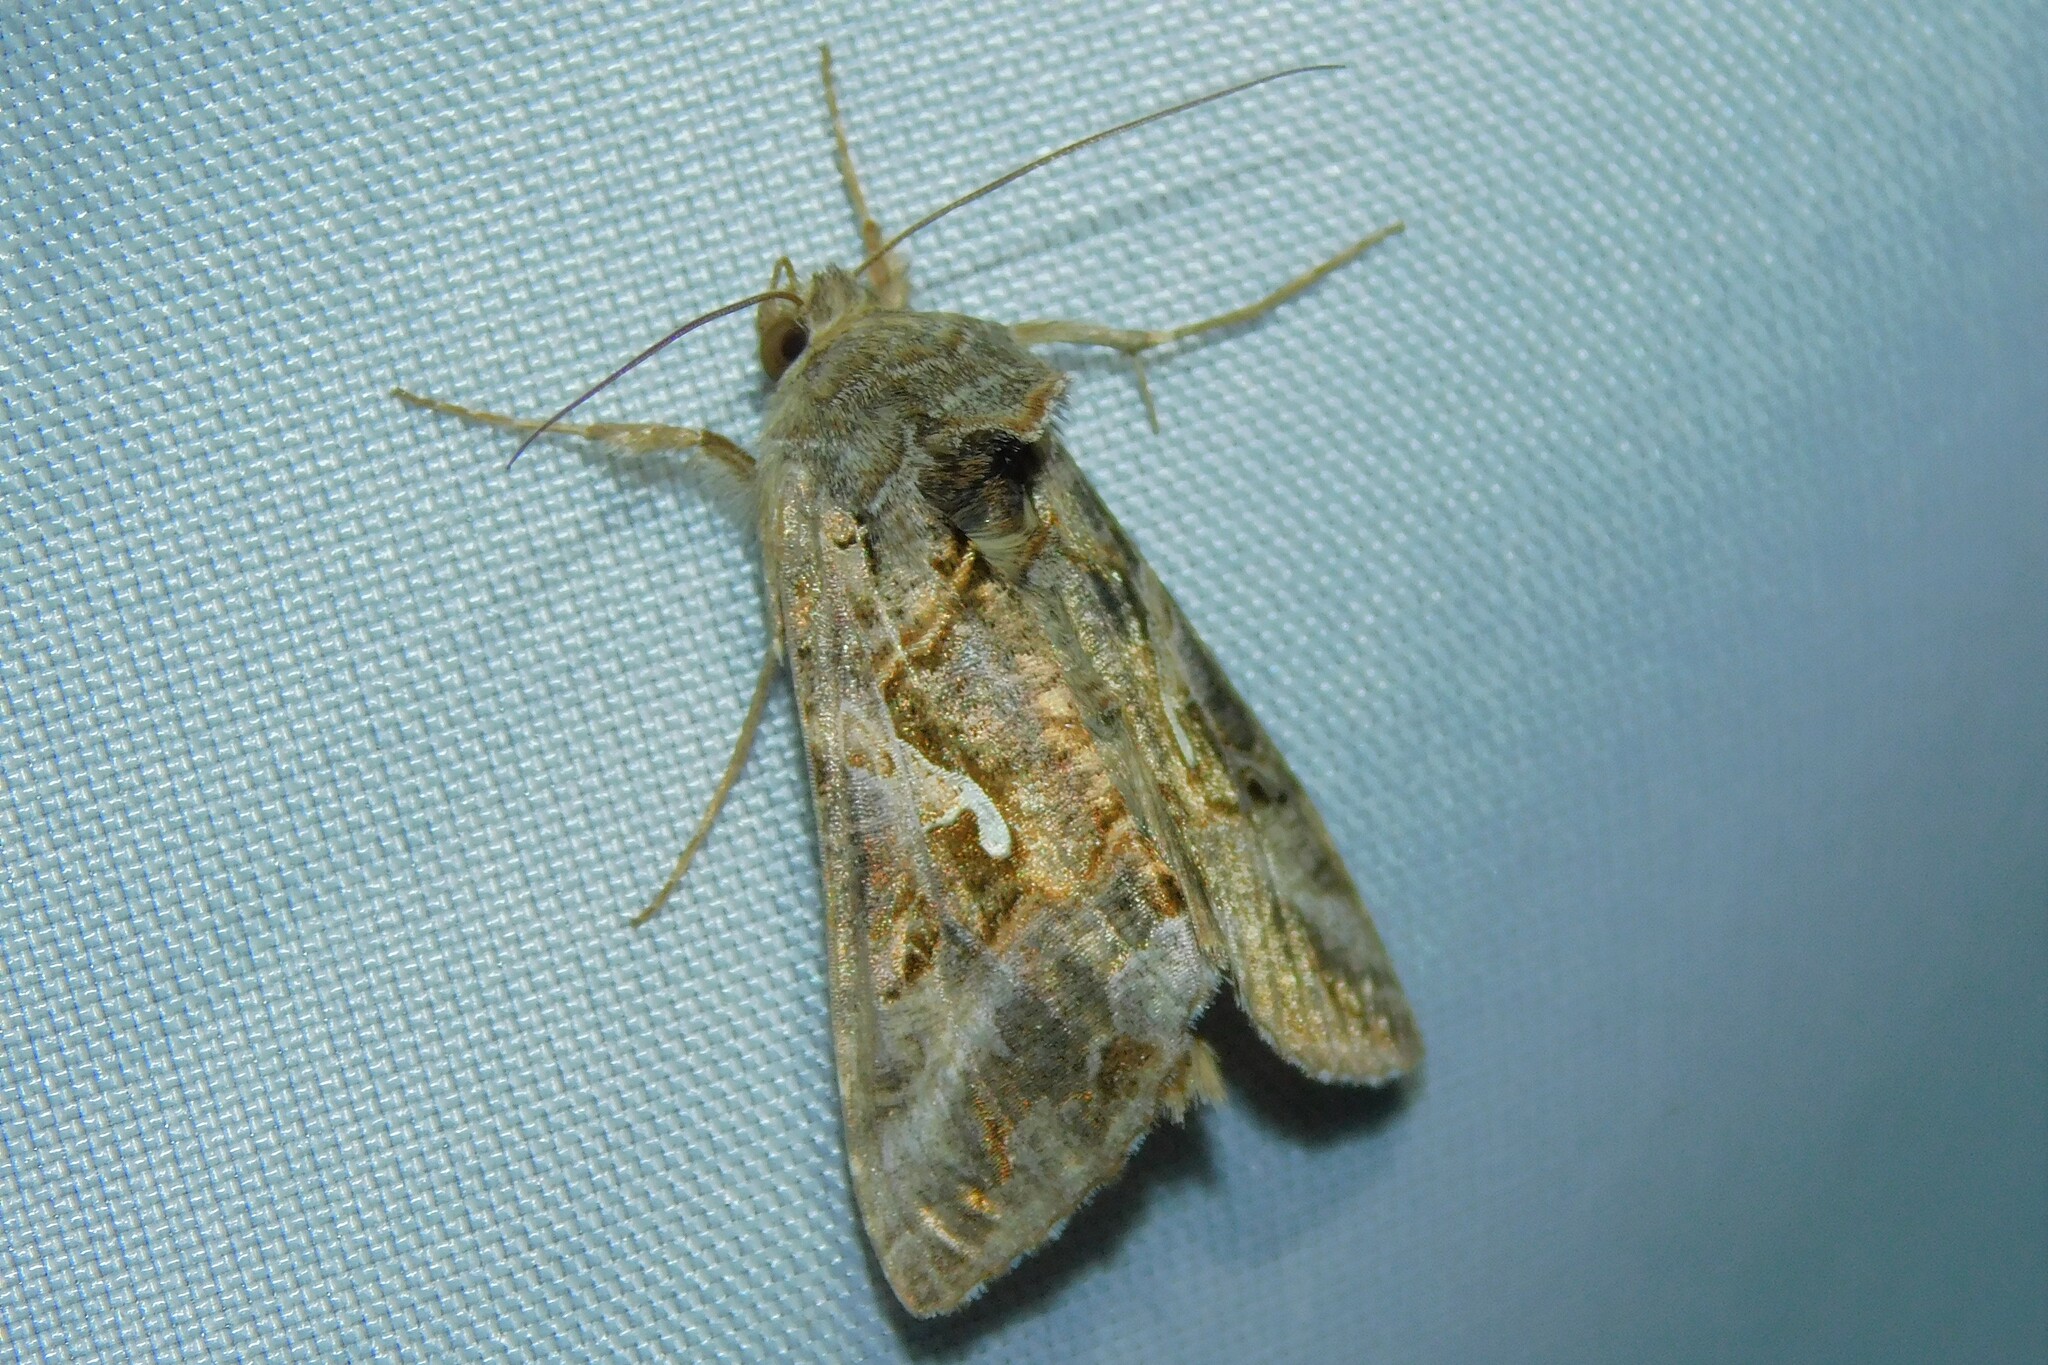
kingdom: Animalia
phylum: Arthropoda
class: Insecta
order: Lepidoptera
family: Noctuidae
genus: Autographa
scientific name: Autographa gamma
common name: Silver y
